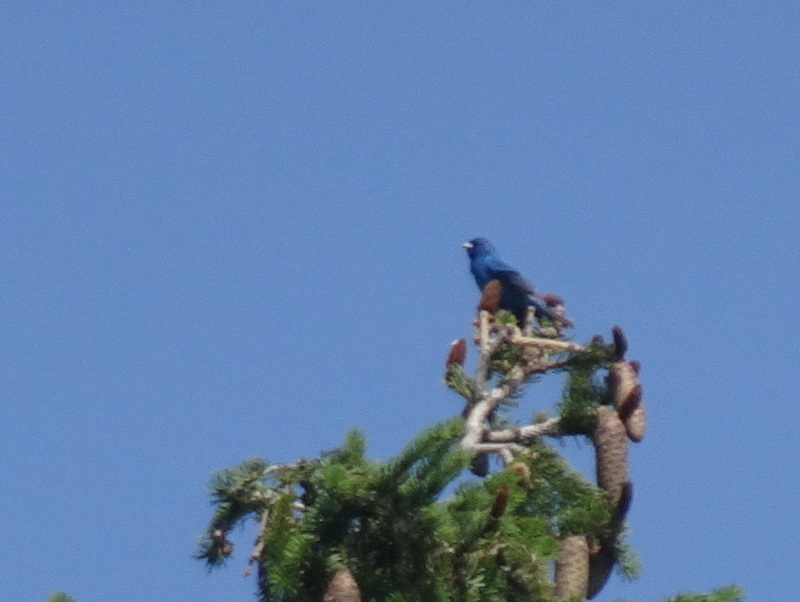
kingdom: Animalia
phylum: Chordata
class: Aves
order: Passeriformes
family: Cardinalidae
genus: Passerina
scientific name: Passerina cyanea
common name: Indigo bunting
